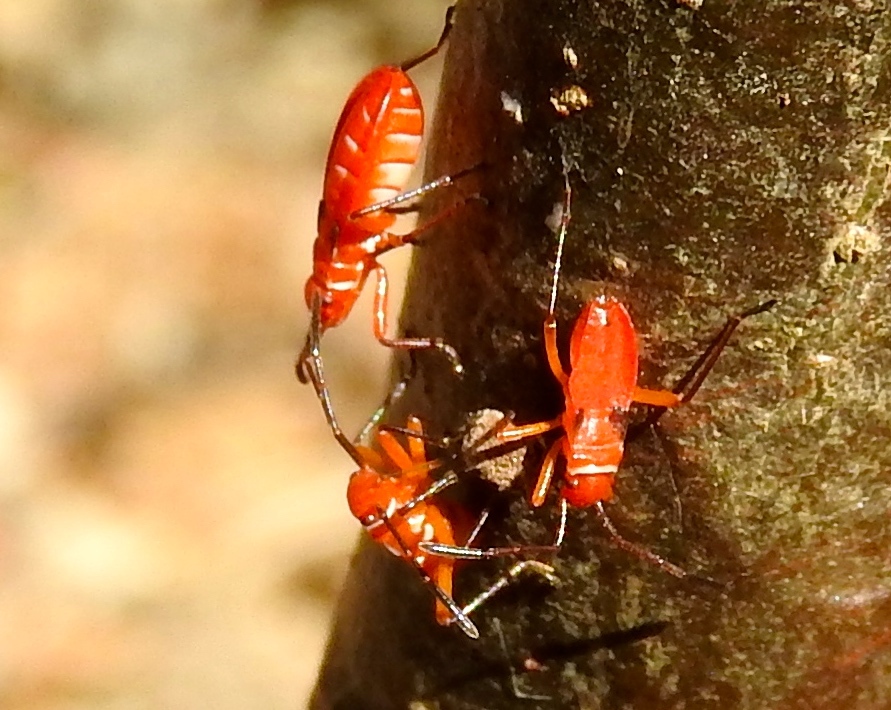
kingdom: Animalia
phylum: Arthropoda
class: Insecta
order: Hemiptera
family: Pyrrhocoridae
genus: Dysdercus
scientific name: Dysdercus
